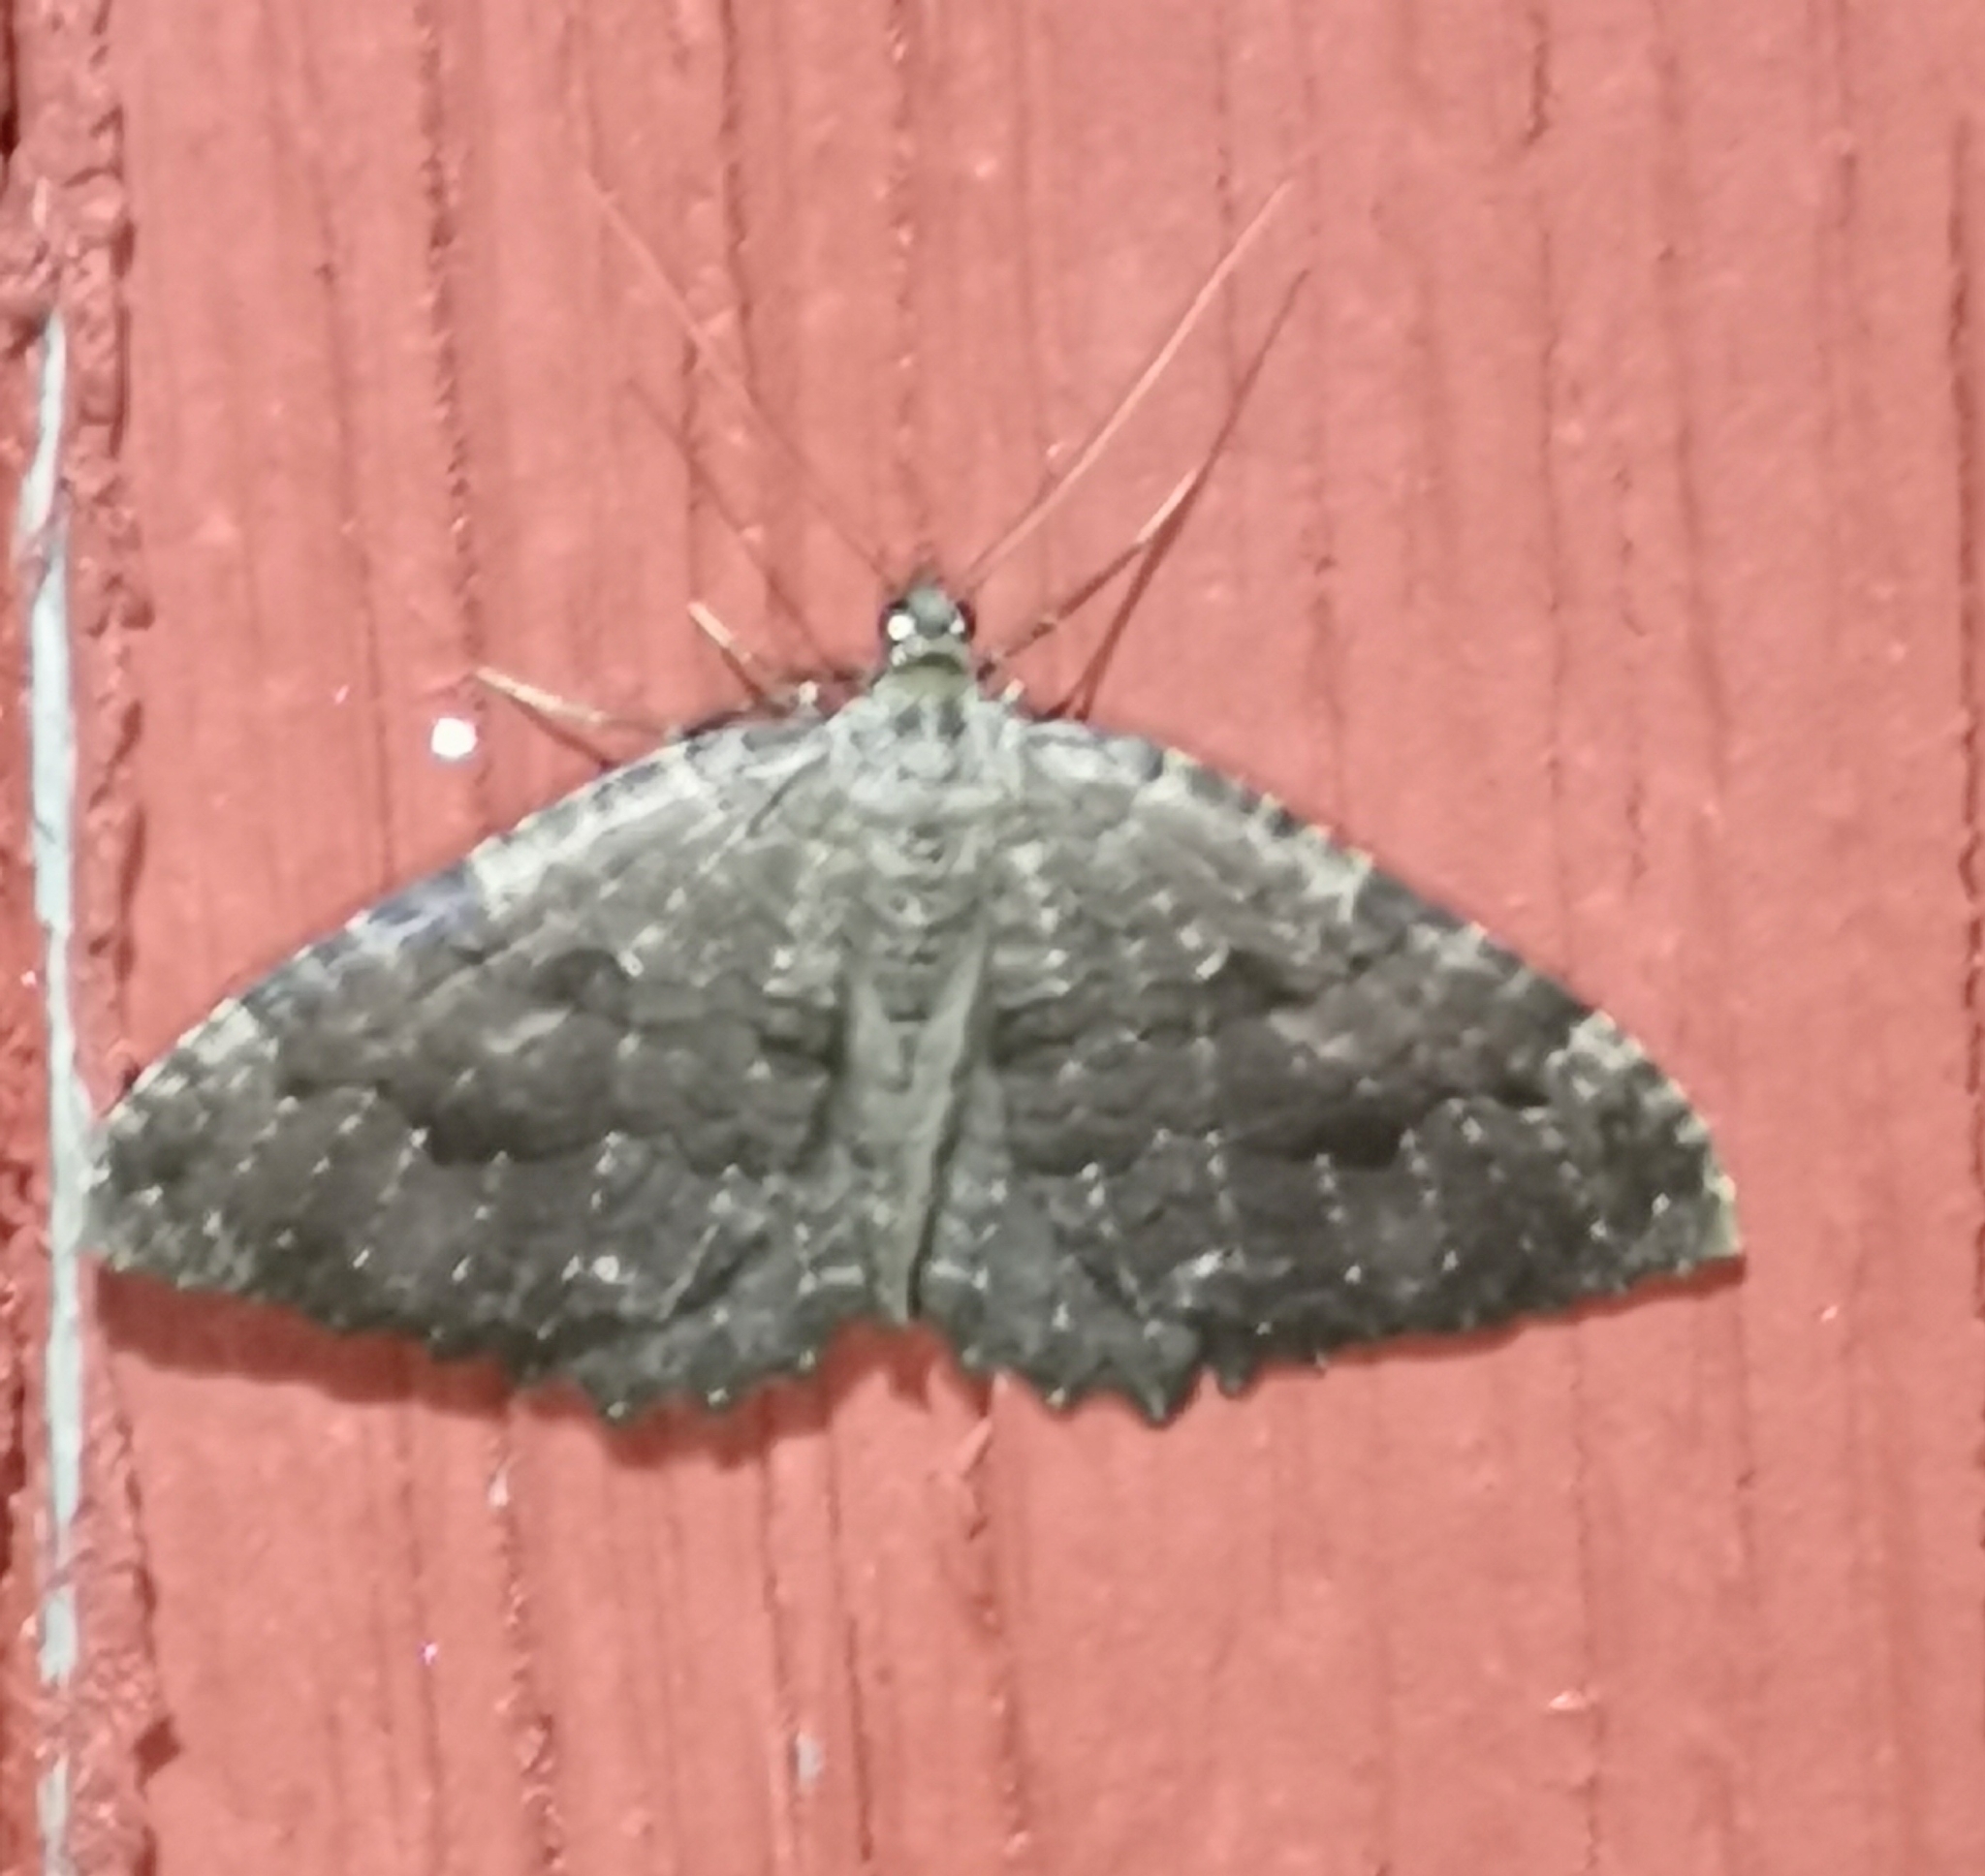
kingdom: Animalia
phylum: Arthropoda
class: Insecta
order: Lepidoptera
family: Geometridae
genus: Triphosa
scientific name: Triphosa dubitata
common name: Tissue
